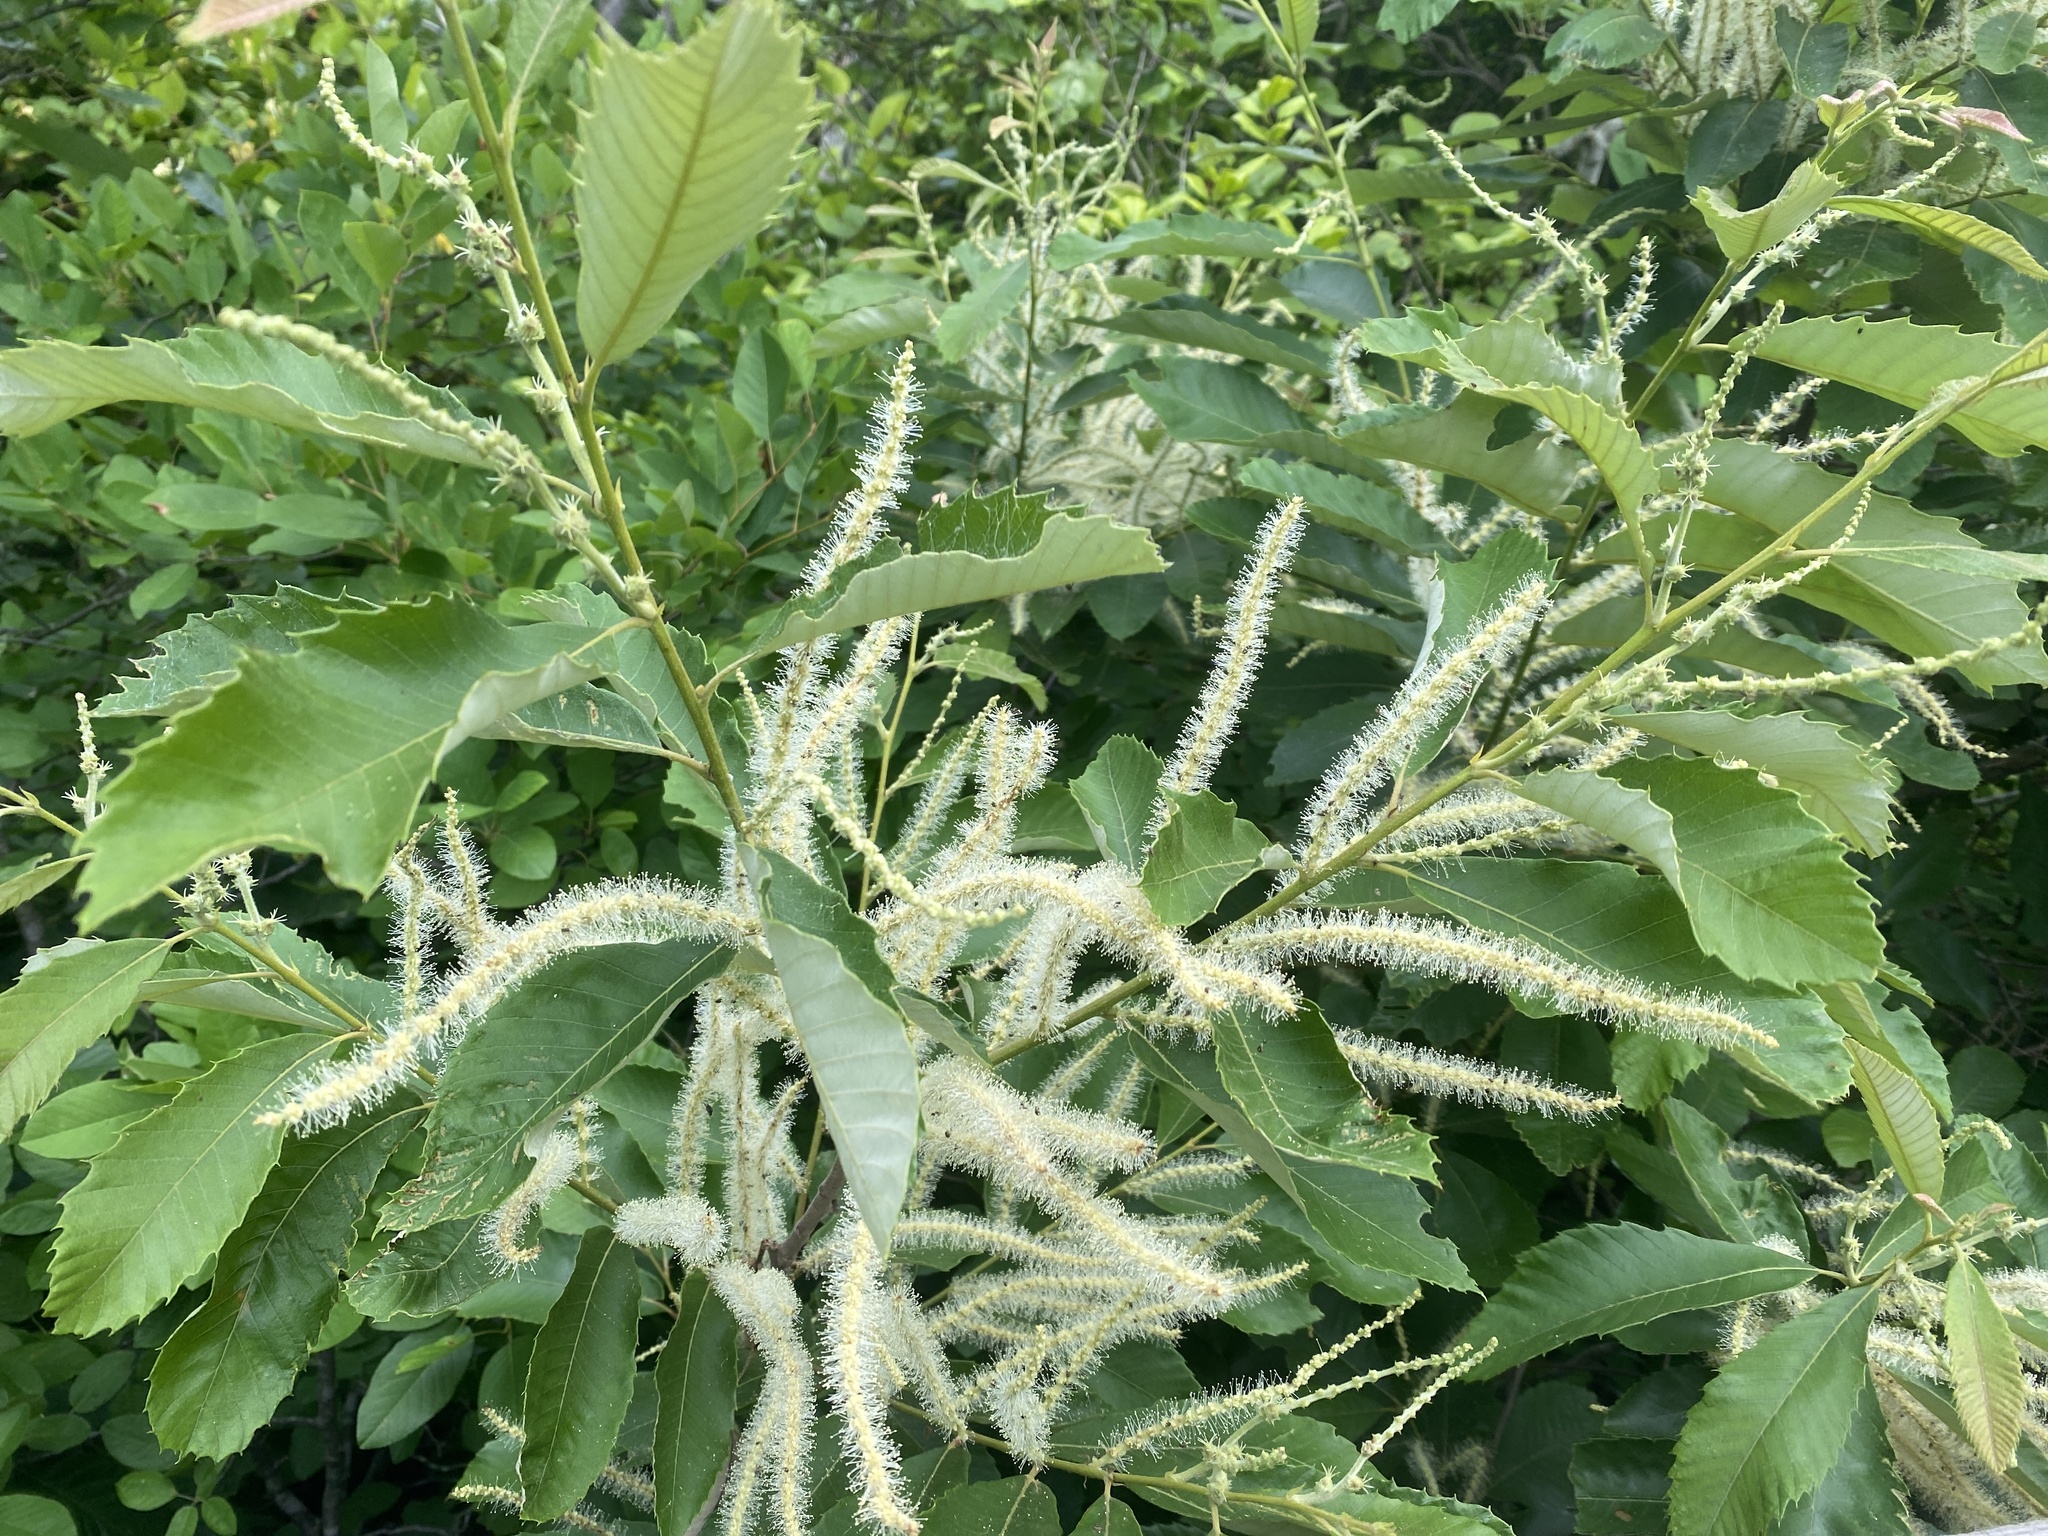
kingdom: Plantae
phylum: Tracheophyta
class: Magnoliopsida
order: Fagales
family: Fagaceae
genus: Castanea
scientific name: Castanea pumila
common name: Chinkapin
